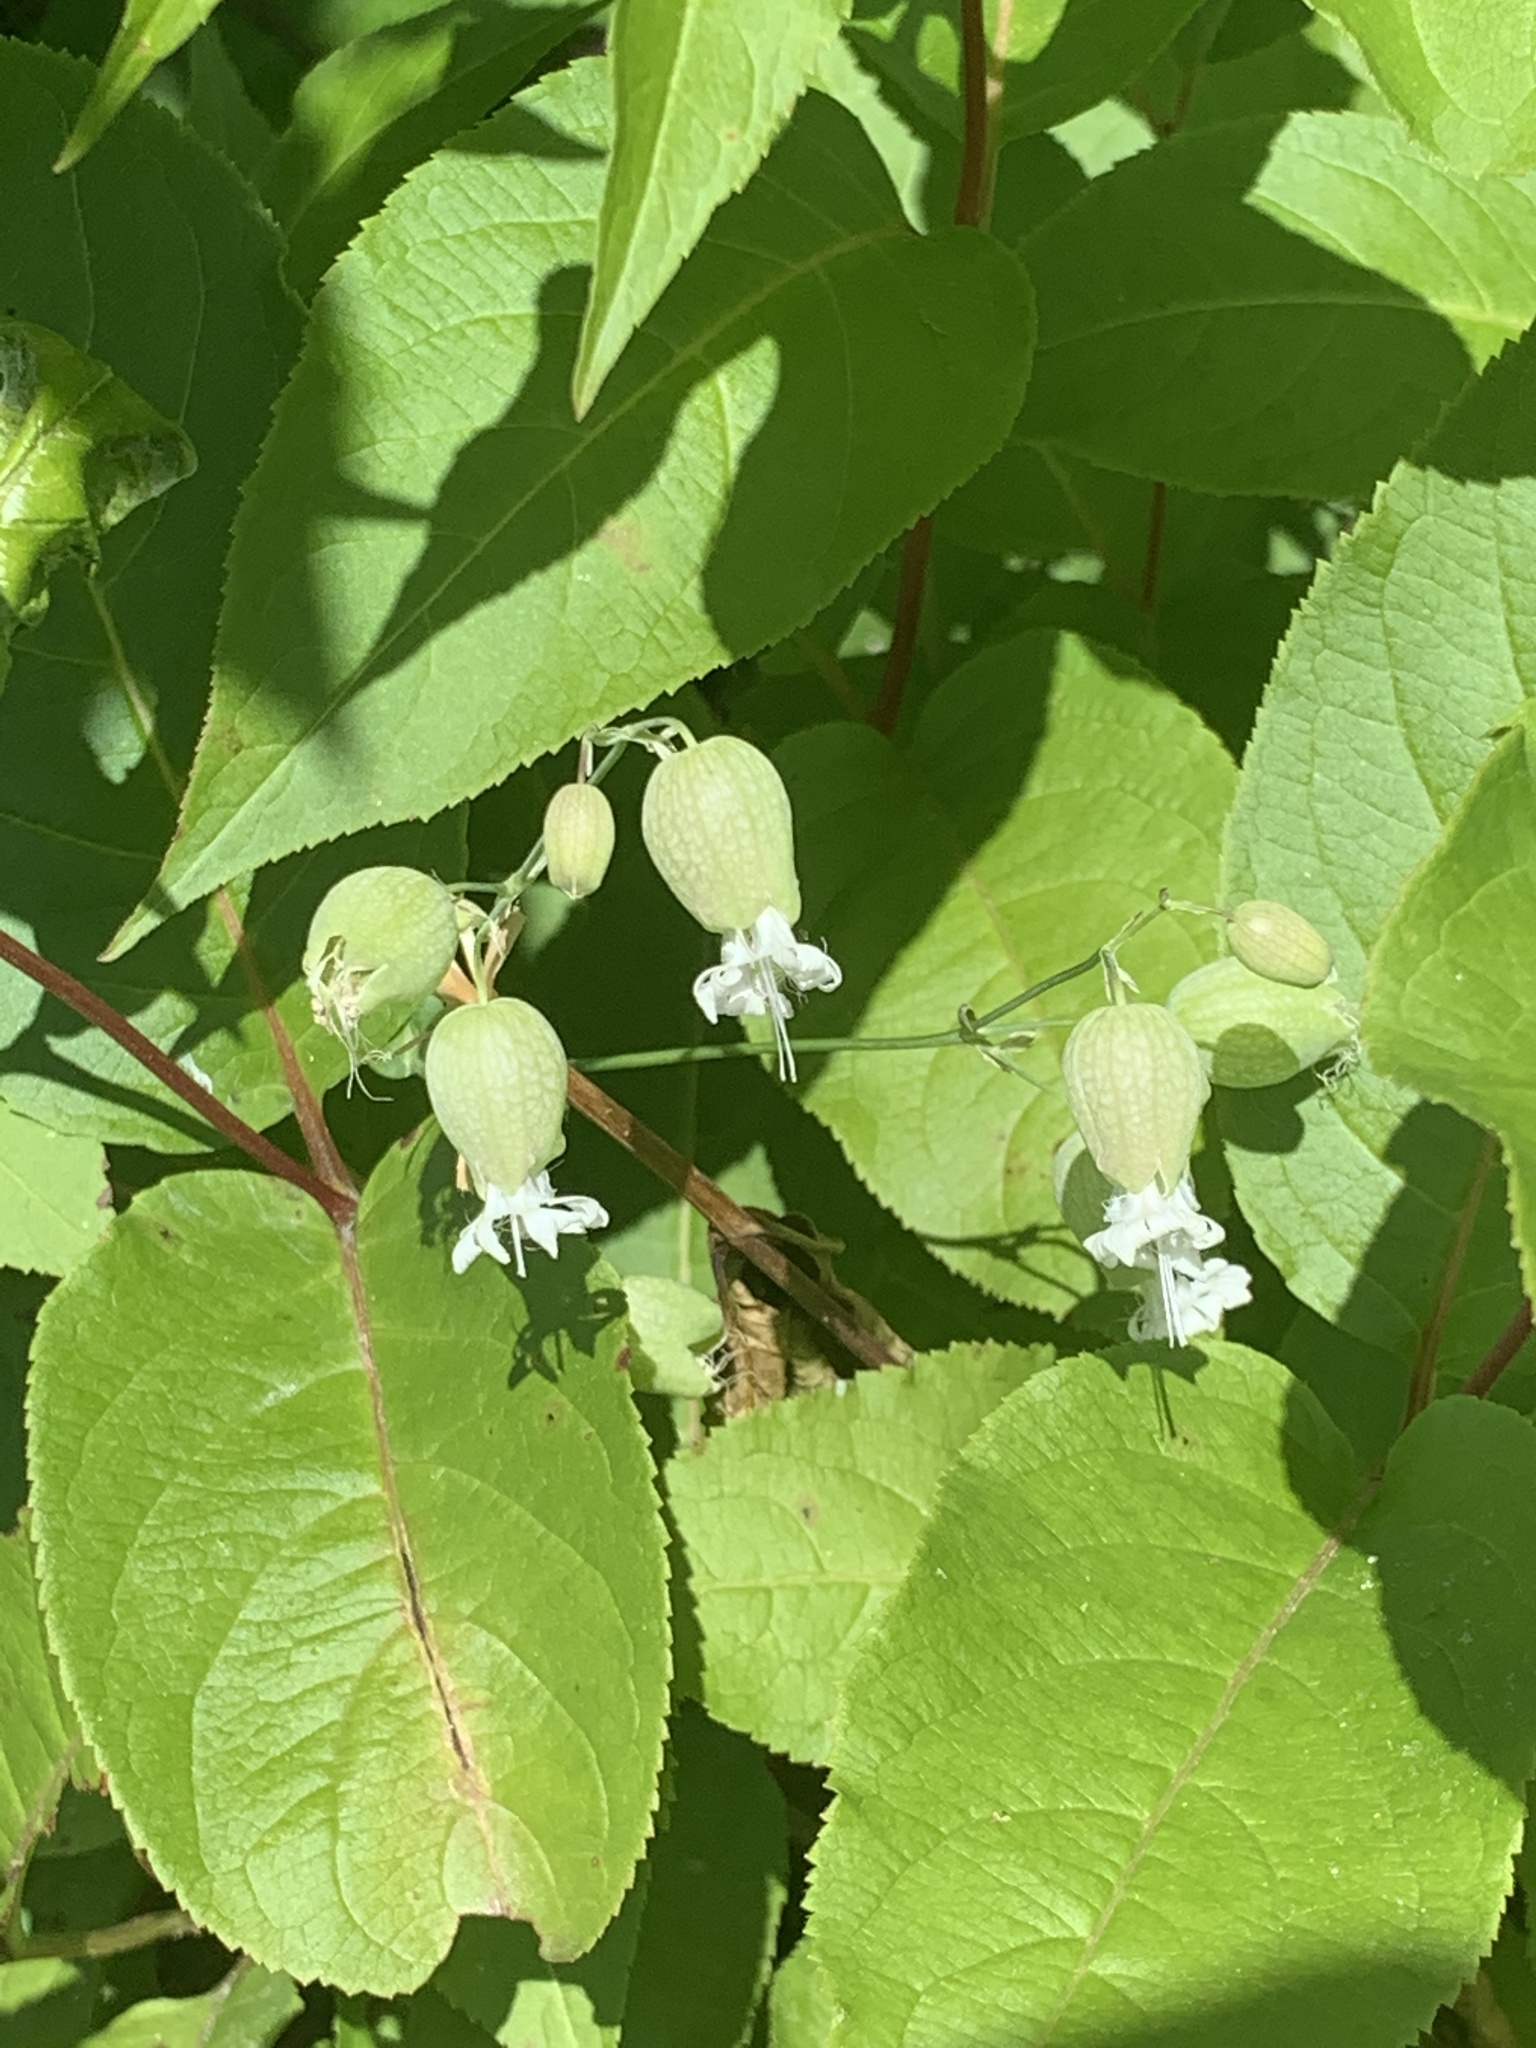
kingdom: Plantae
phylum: Tracheophyta
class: Magnoliopsida
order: Caryophyllales
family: Caryophyllaceae
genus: Silene
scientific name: Silene vulgaris
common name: Bladder campion
